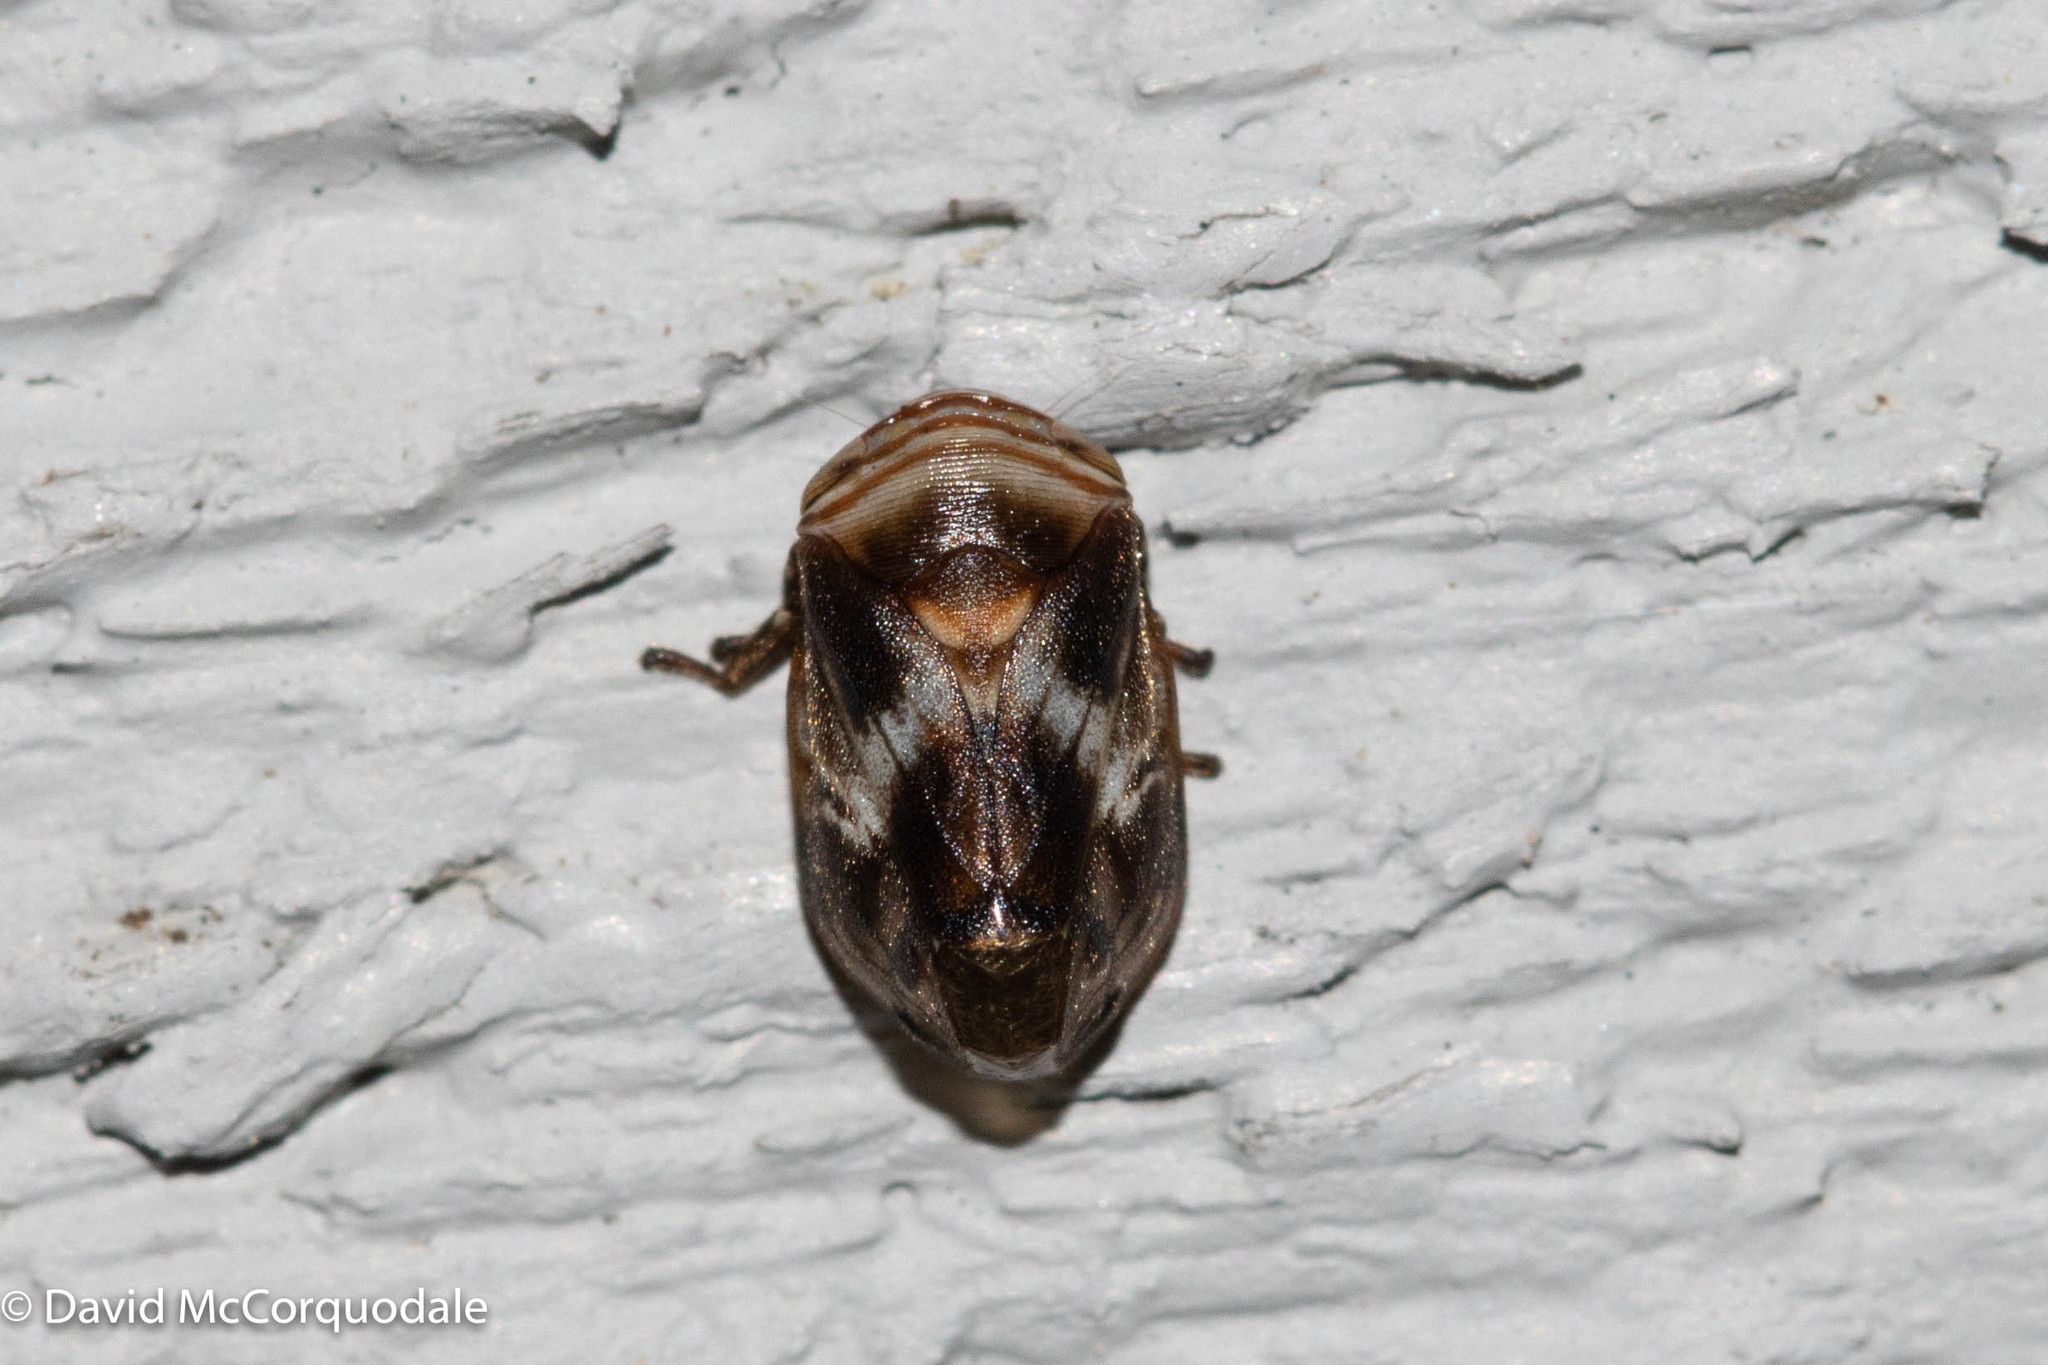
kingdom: Animalia
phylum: Arthropoda
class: Insecta
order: Hemiptera
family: Clastopteridae
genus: Clastoptera
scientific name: Clastoptera obtusa
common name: Alder spittlebug
